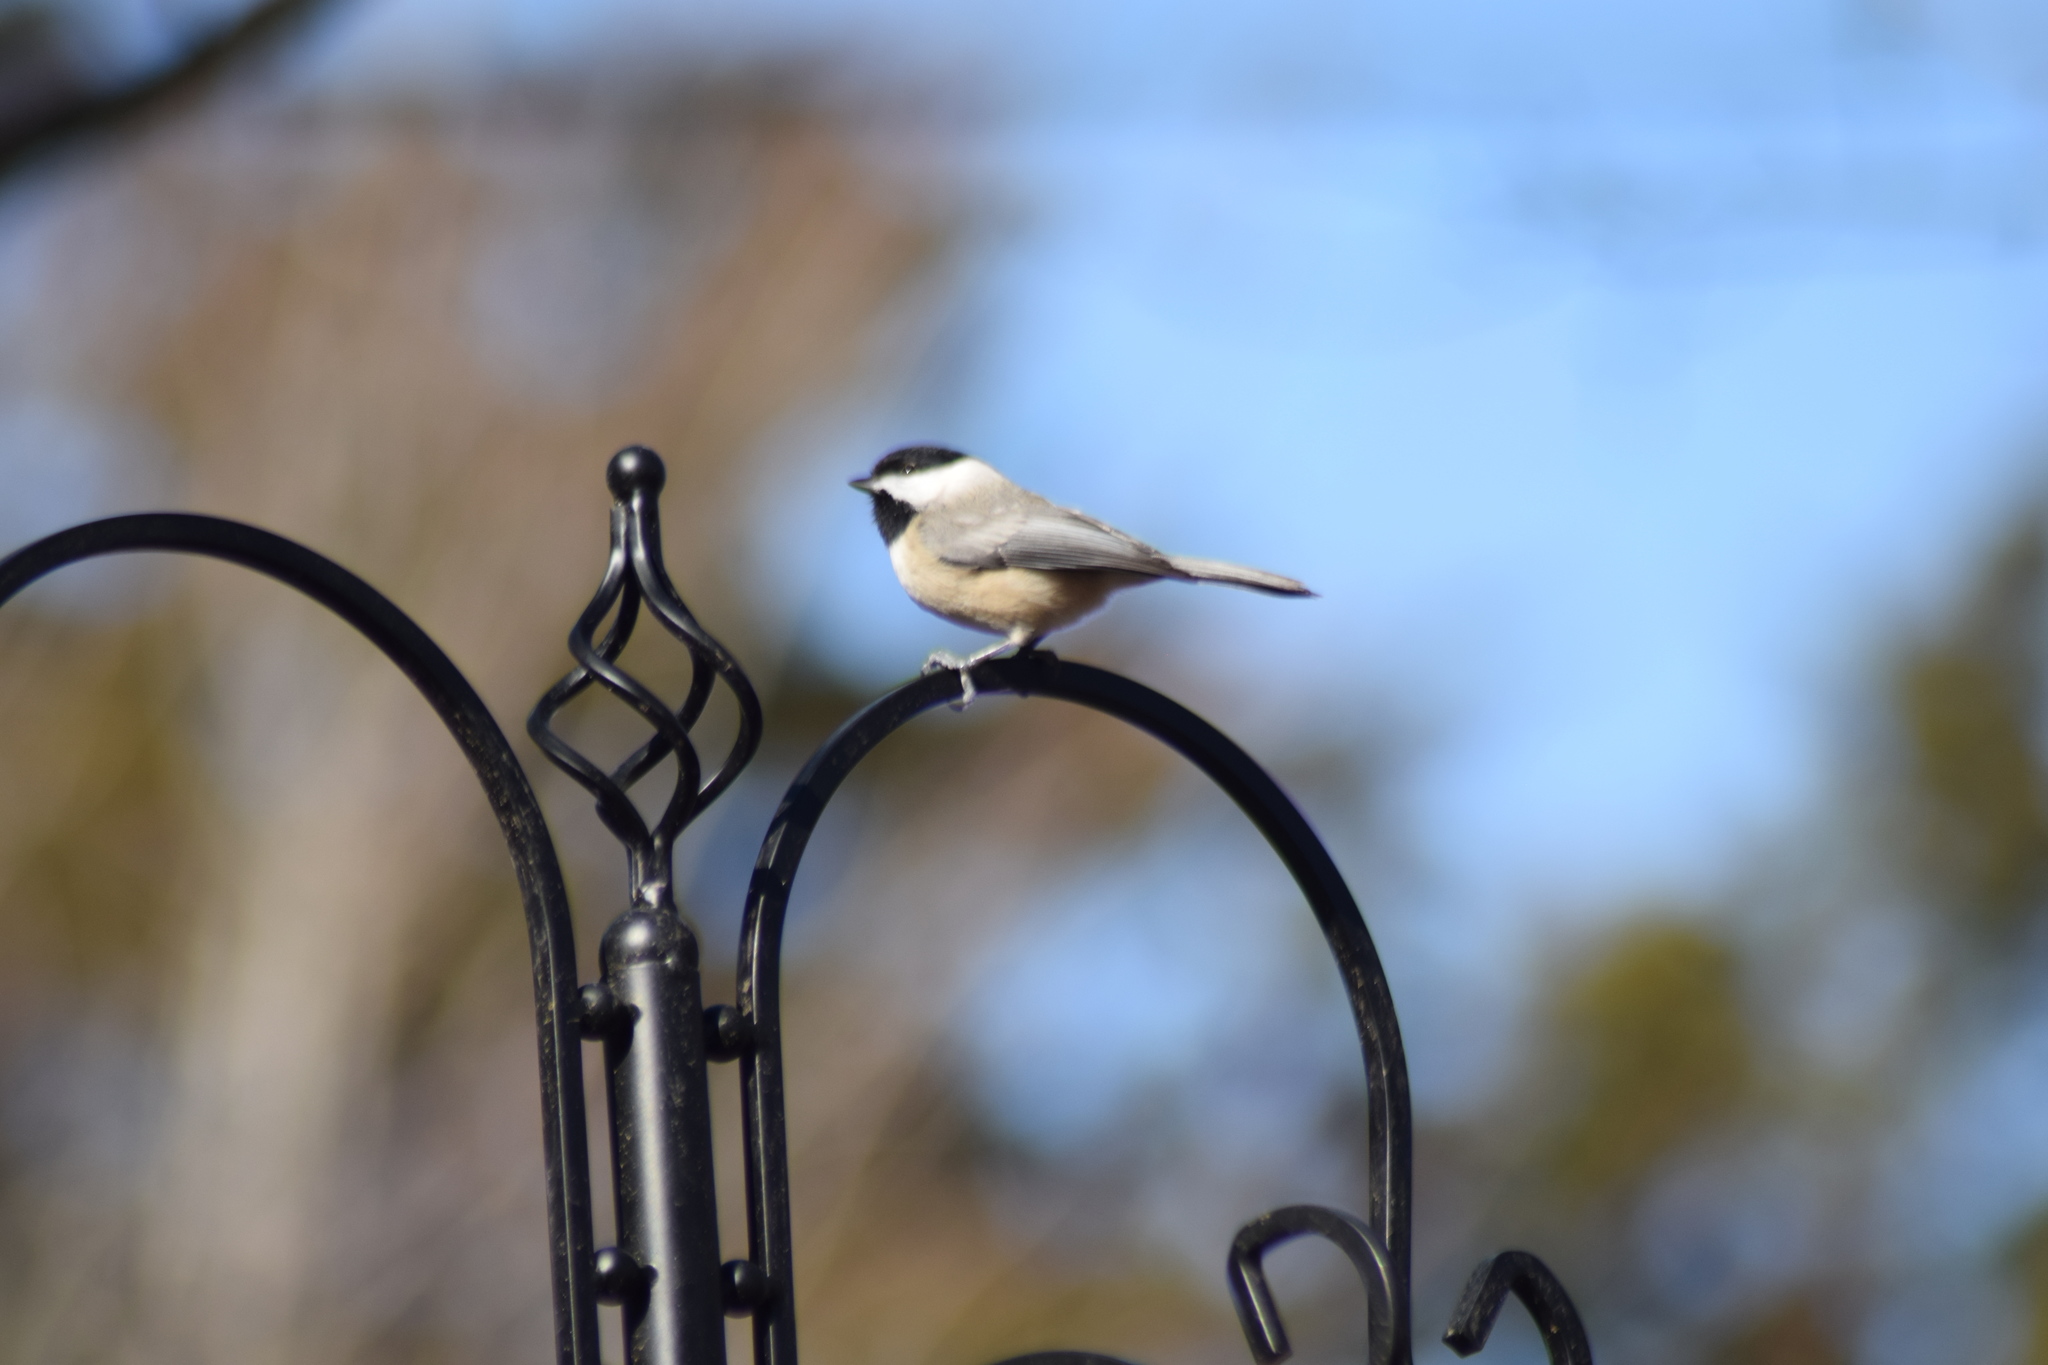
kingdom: Animalia
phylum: Chordata
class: Aves
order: Passeriformes
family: Paridae
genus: Poecile
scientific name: Poecile carolinensis
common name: Carolina chickadee
